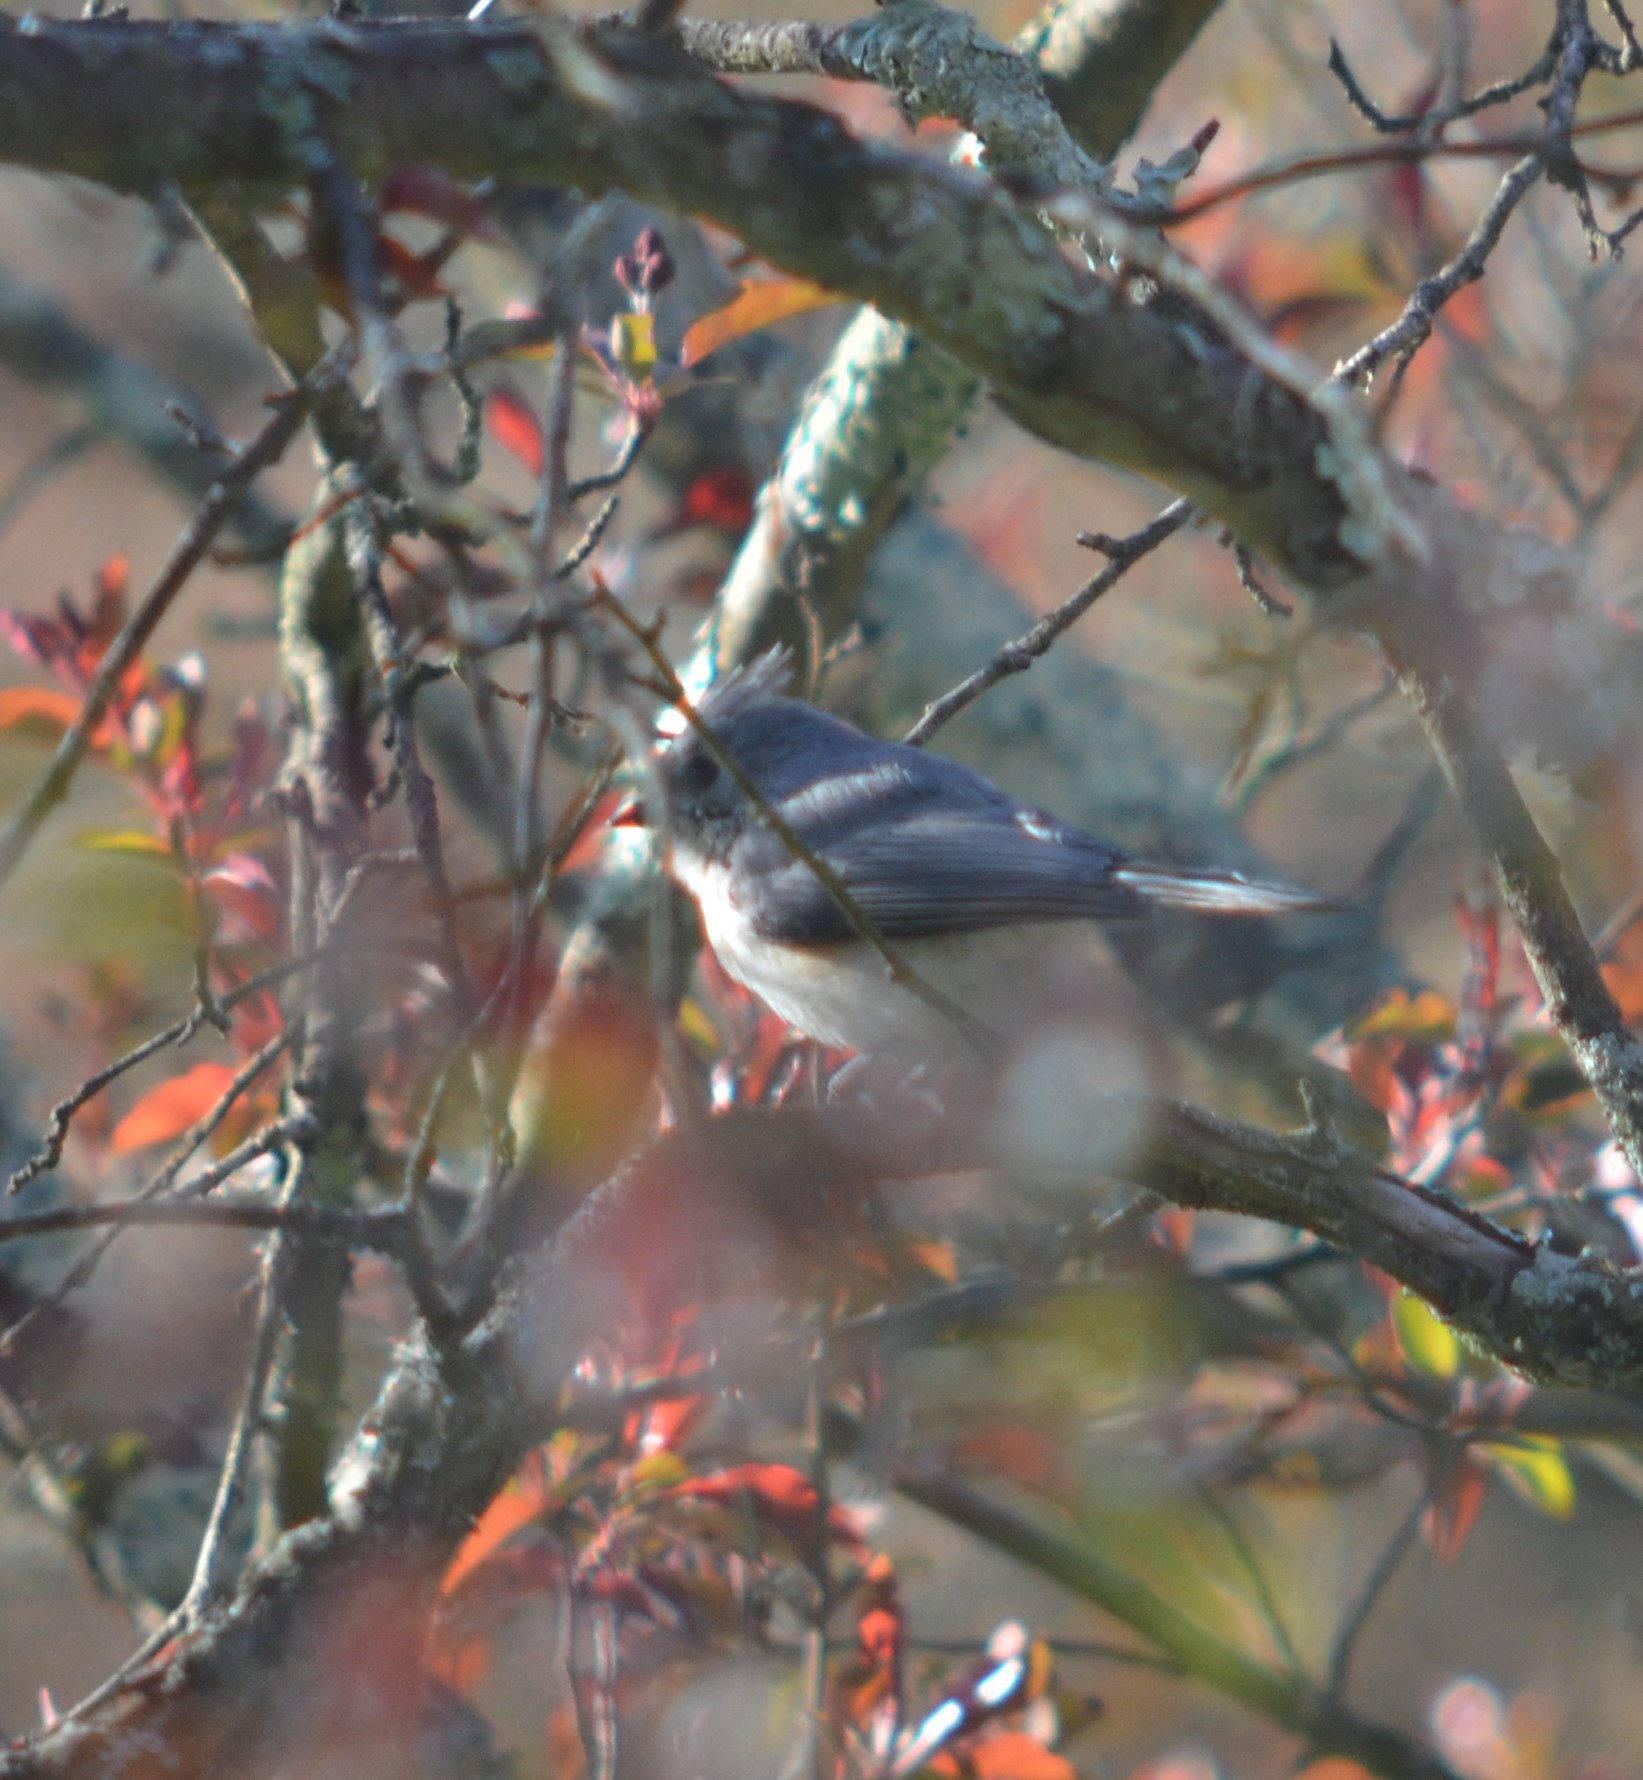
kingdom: Animalia
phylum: Chordata
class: Aves
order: Passeriformes
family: Passerellidae
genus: Junco
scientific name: Junco hyemalis
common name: Dark-eyed junco
